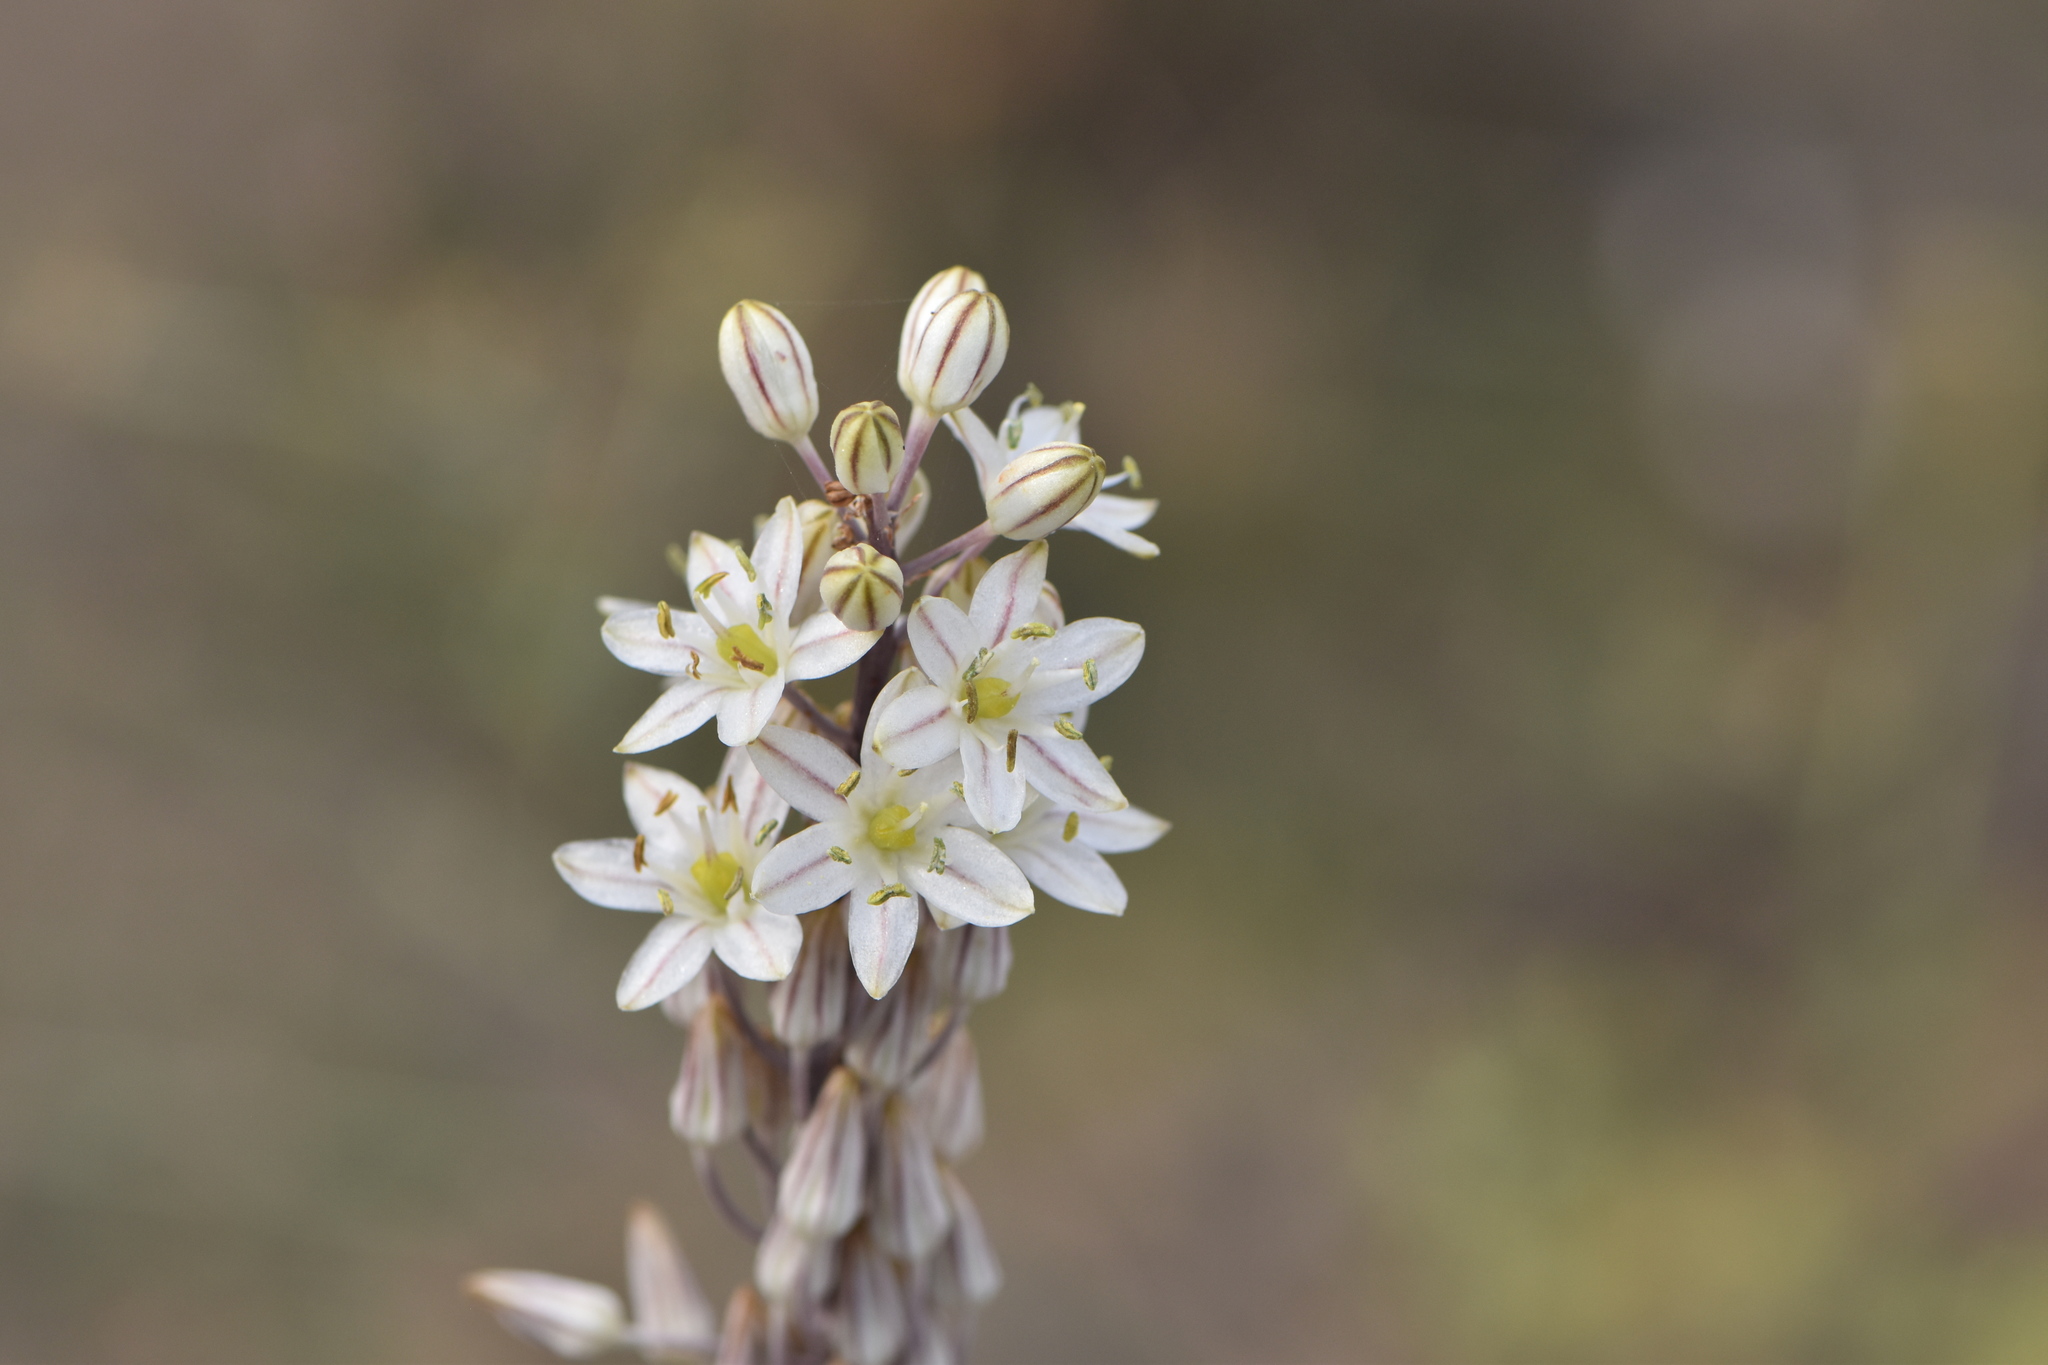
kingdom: Plantae
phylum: Tracheophyta
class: Liliopsida
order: Asparagales
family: Asparagaceae
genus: Drimia
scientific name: Drimia maritima
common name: Maritime squill
